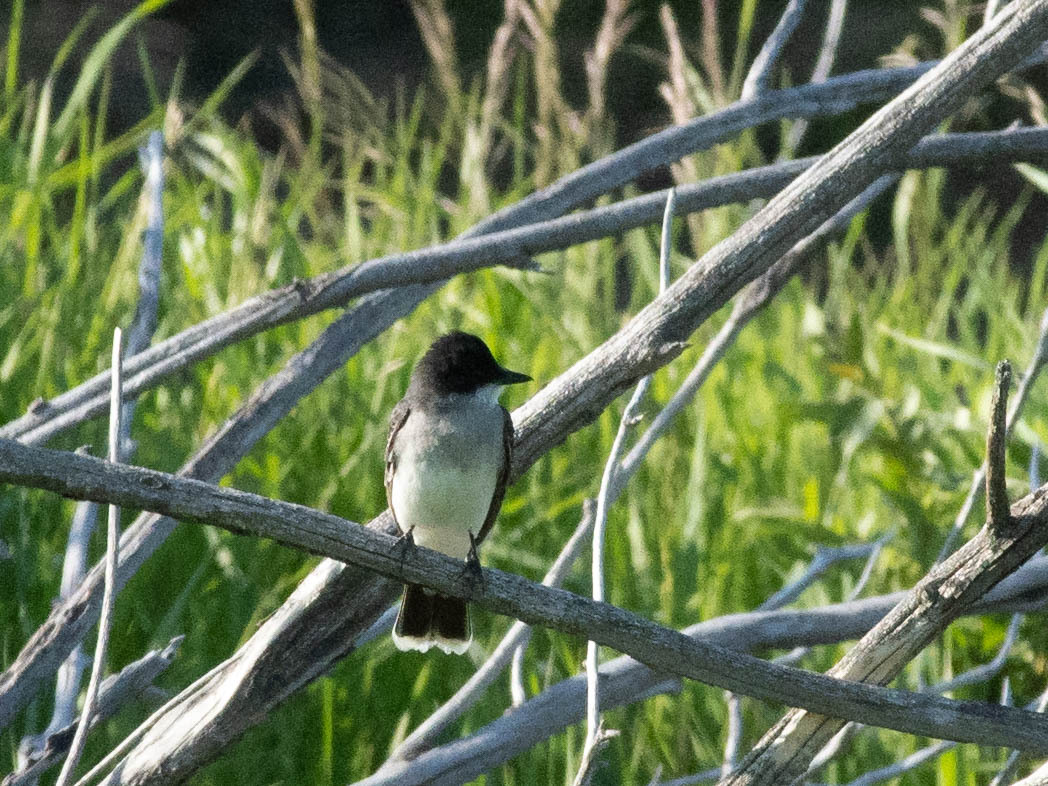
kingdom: Animalia
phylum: Chordata
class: Aves
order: Passeriformes
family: Tyrannidae
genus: Tyrannus
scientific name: Tyrannus tyrannus
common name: Eastern kingbird
